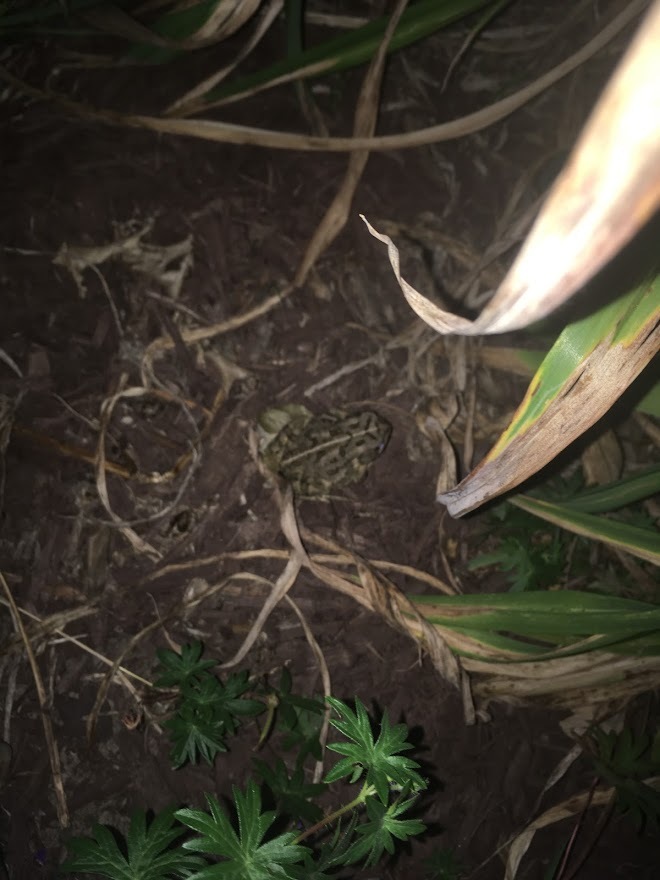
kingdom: Animalia
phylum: Chordata
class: Amphibia
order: Anura
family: Bufonidae
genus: Anaxyrus
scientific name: Anaxyrus fowleri
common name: Fowler's toad
